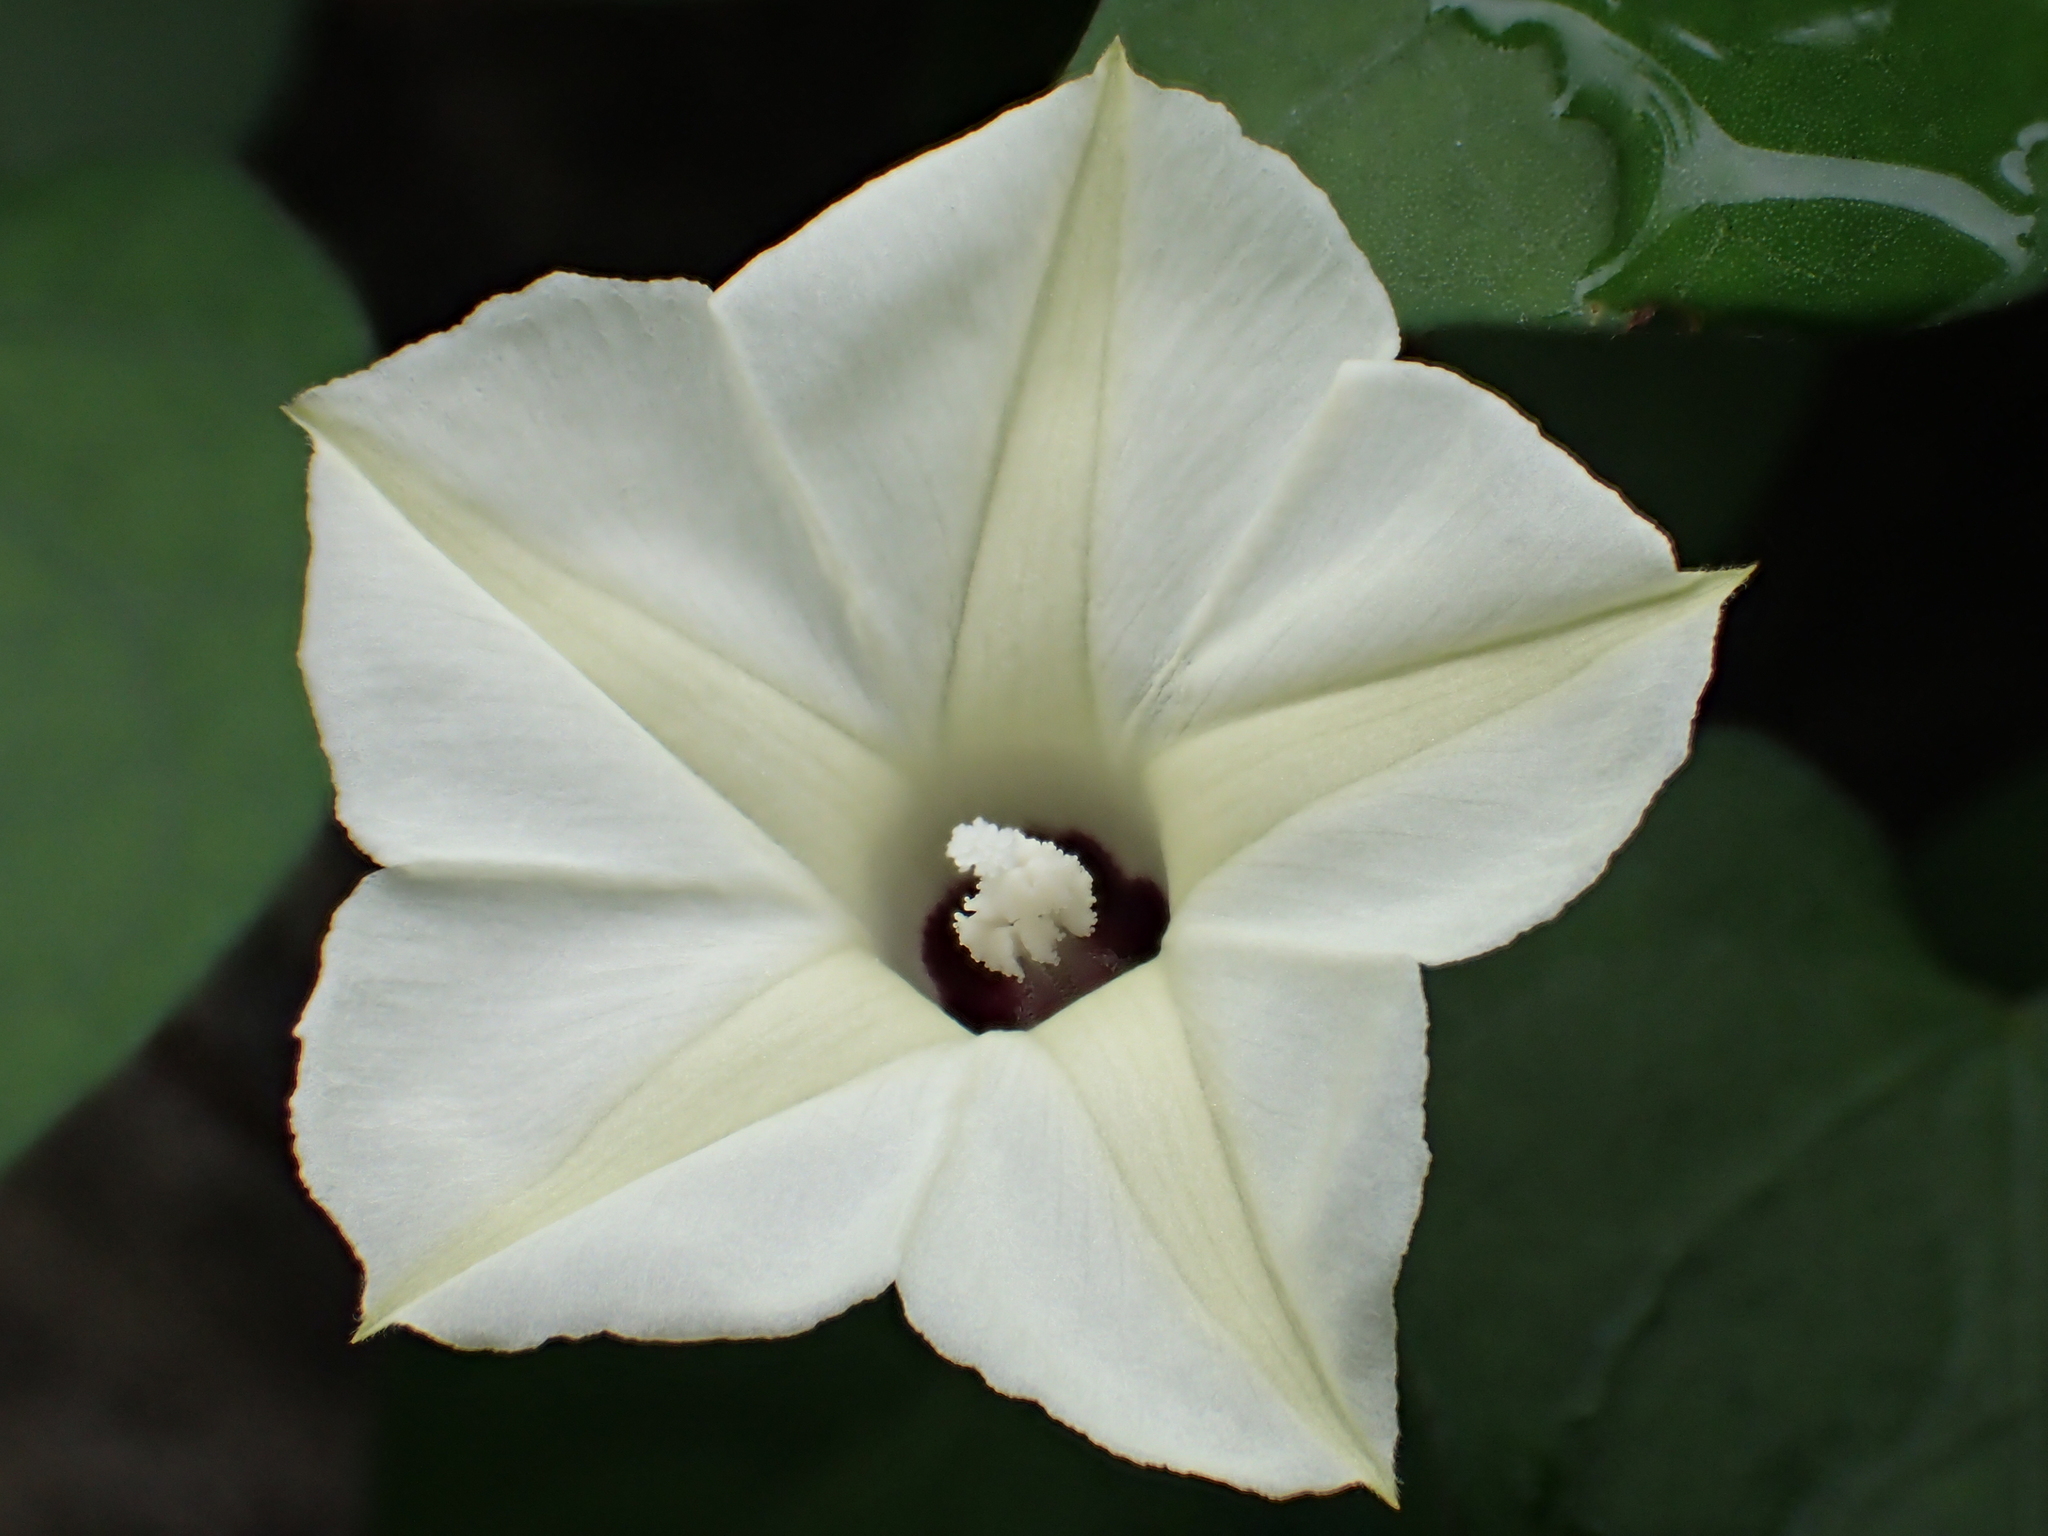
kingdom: Plantae
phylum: Tracheophyta
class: Magnoliopsida
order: Solanales
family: Convolvulaceae
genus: Ipomoea
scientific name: Ipomoea obscura
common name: Obscure morning-glory
